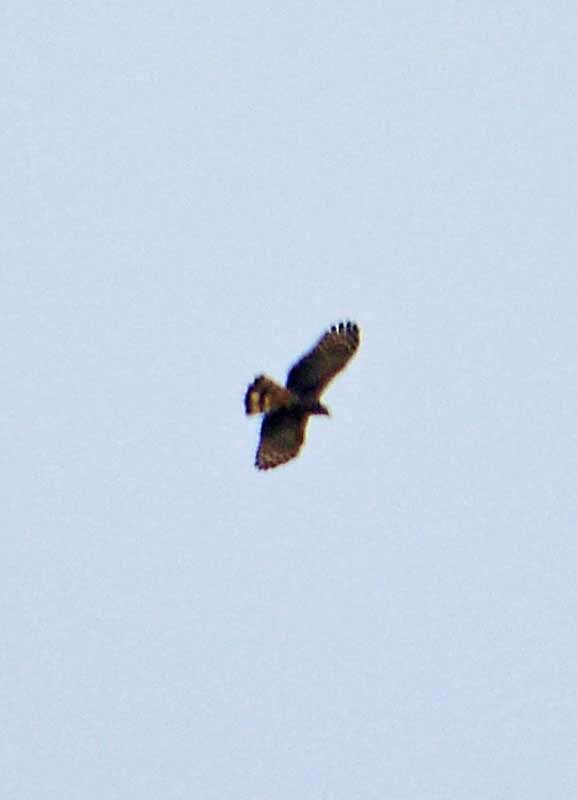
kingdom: Animalia
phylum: Chordata
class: Aves
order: Accipitriformes
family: Accipitridae
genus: Chondrohierax
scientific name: Chondrohierax uncinatus
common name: Hook-billed kite
